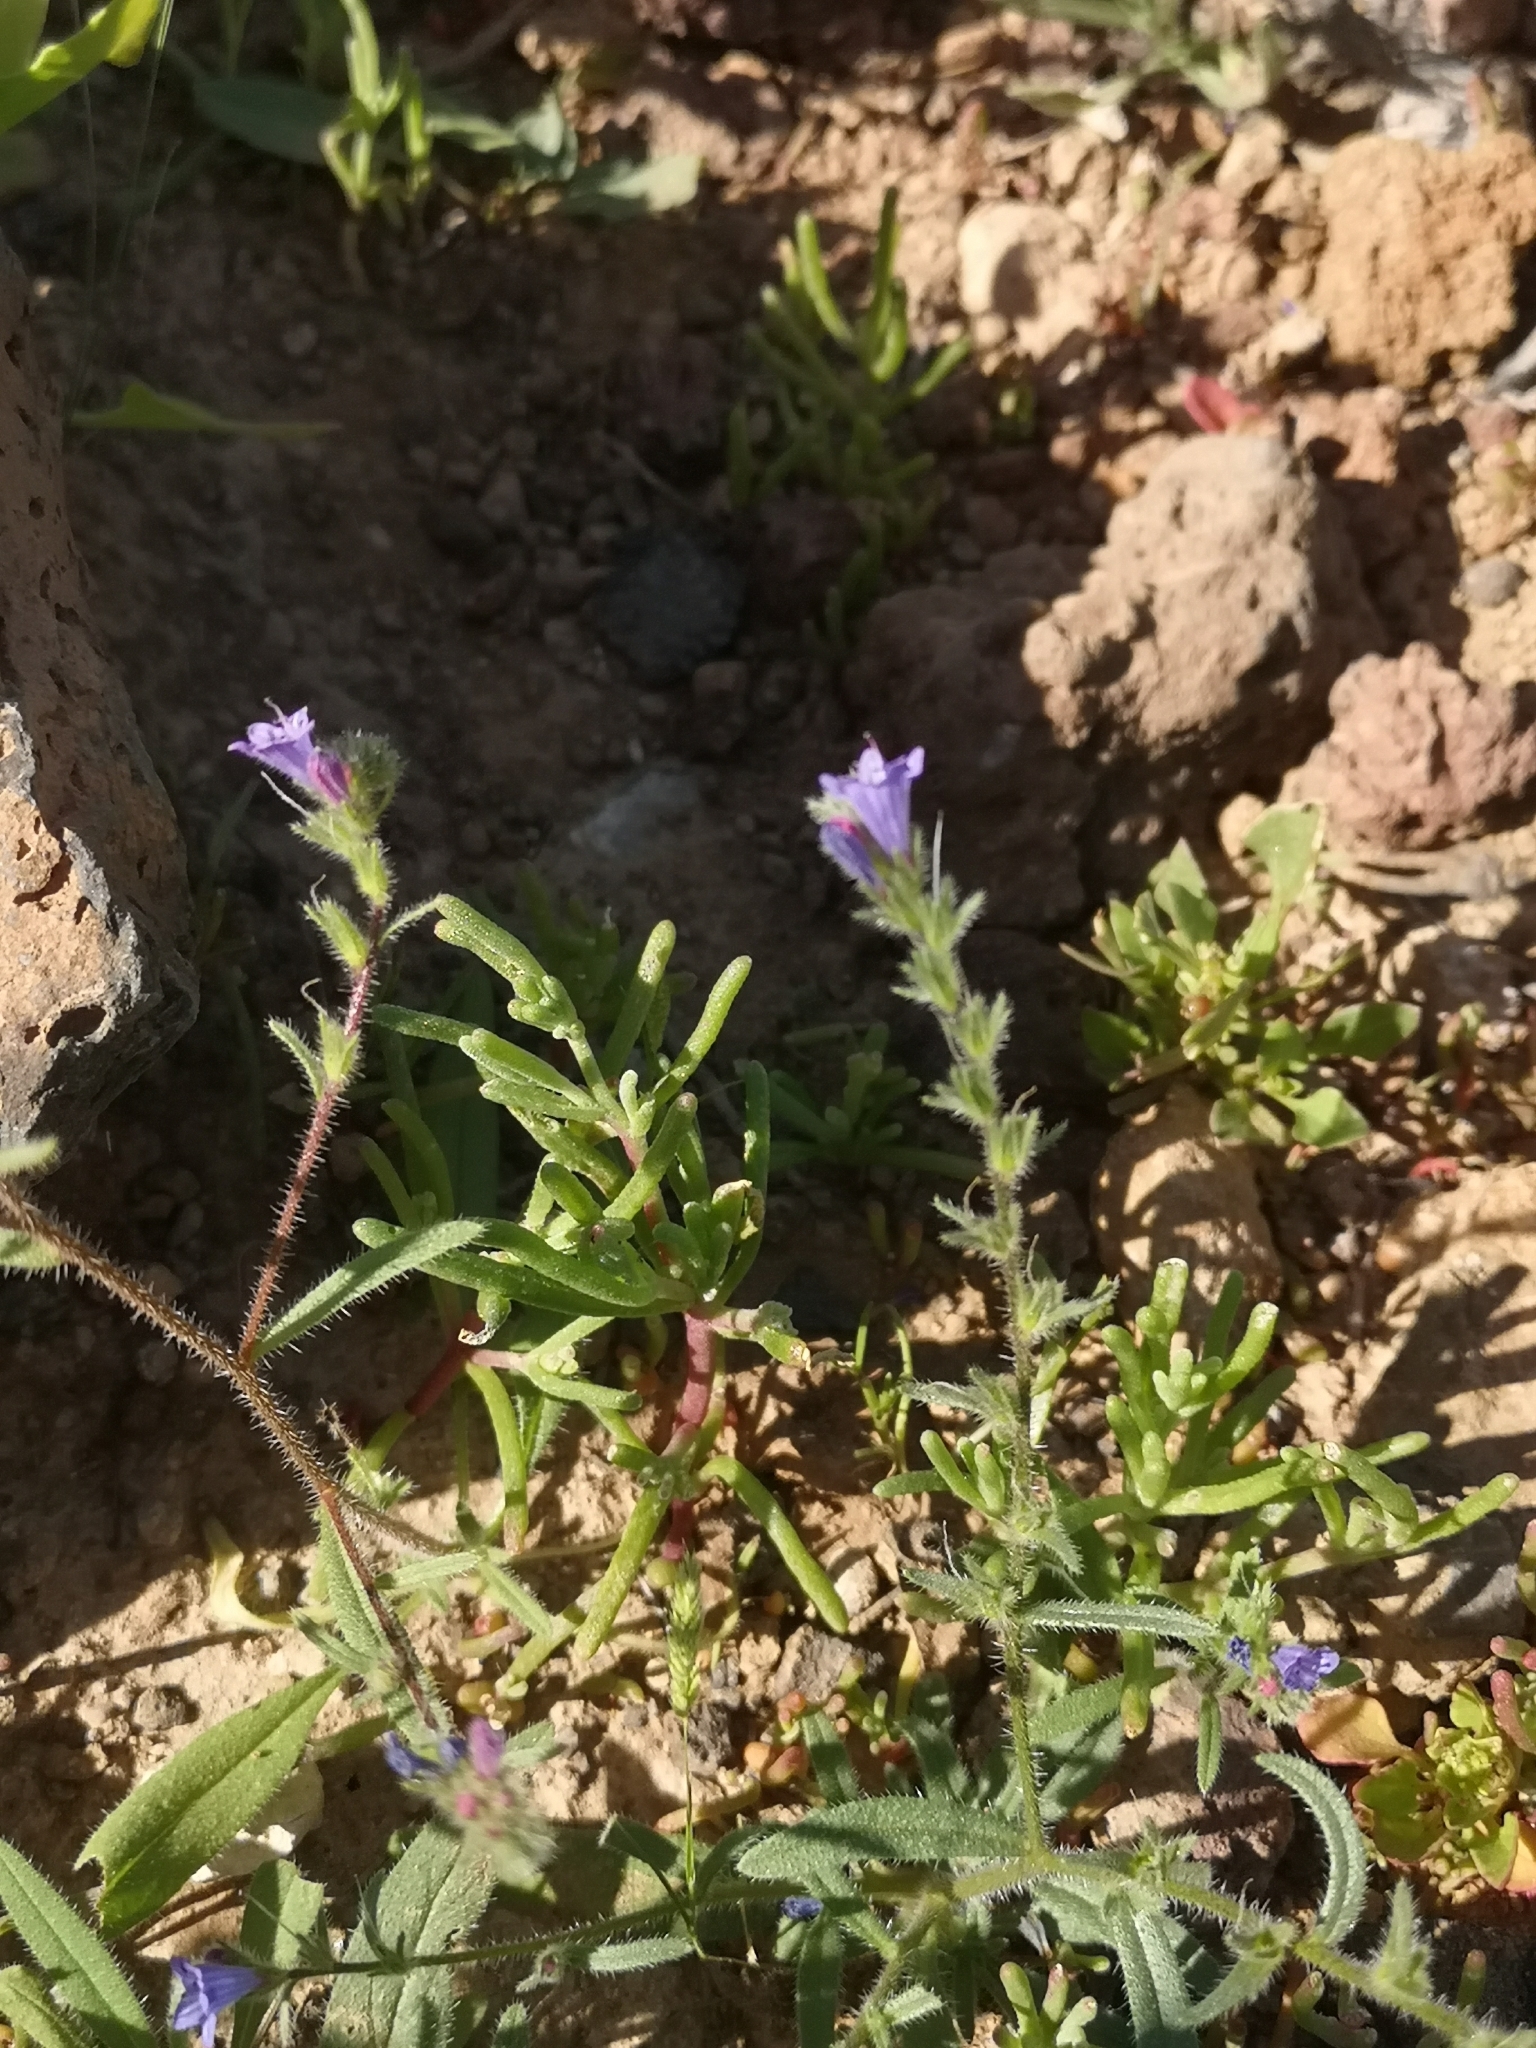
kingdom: Plantae
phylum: Tracheophyta
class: Magnoliopsida
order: Boraginales
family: Boraginaceae
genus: Echium
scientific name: Echium bonnetii
